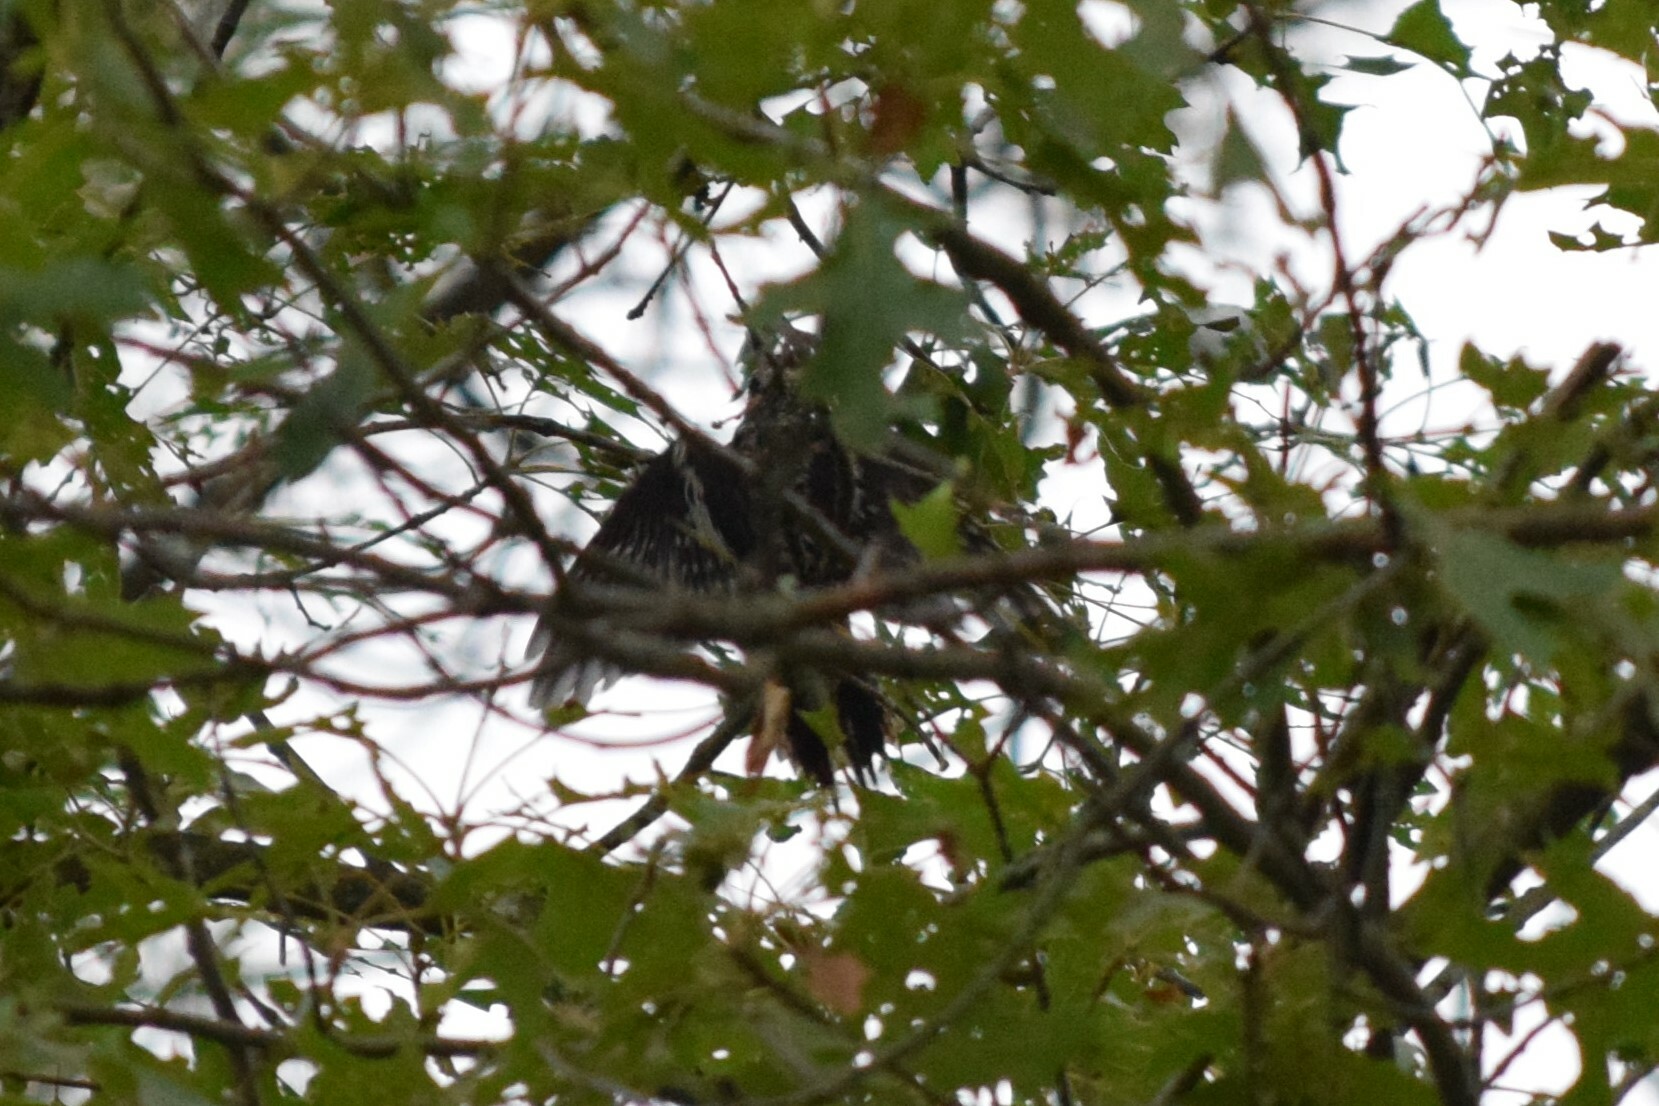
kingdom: Animalia
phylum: Chordata
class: Aves
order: Piciformes
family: Picidae
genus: Sphyrapicus
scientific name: Sphyrapicus varius
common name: Yellow-bellied sapsucker
